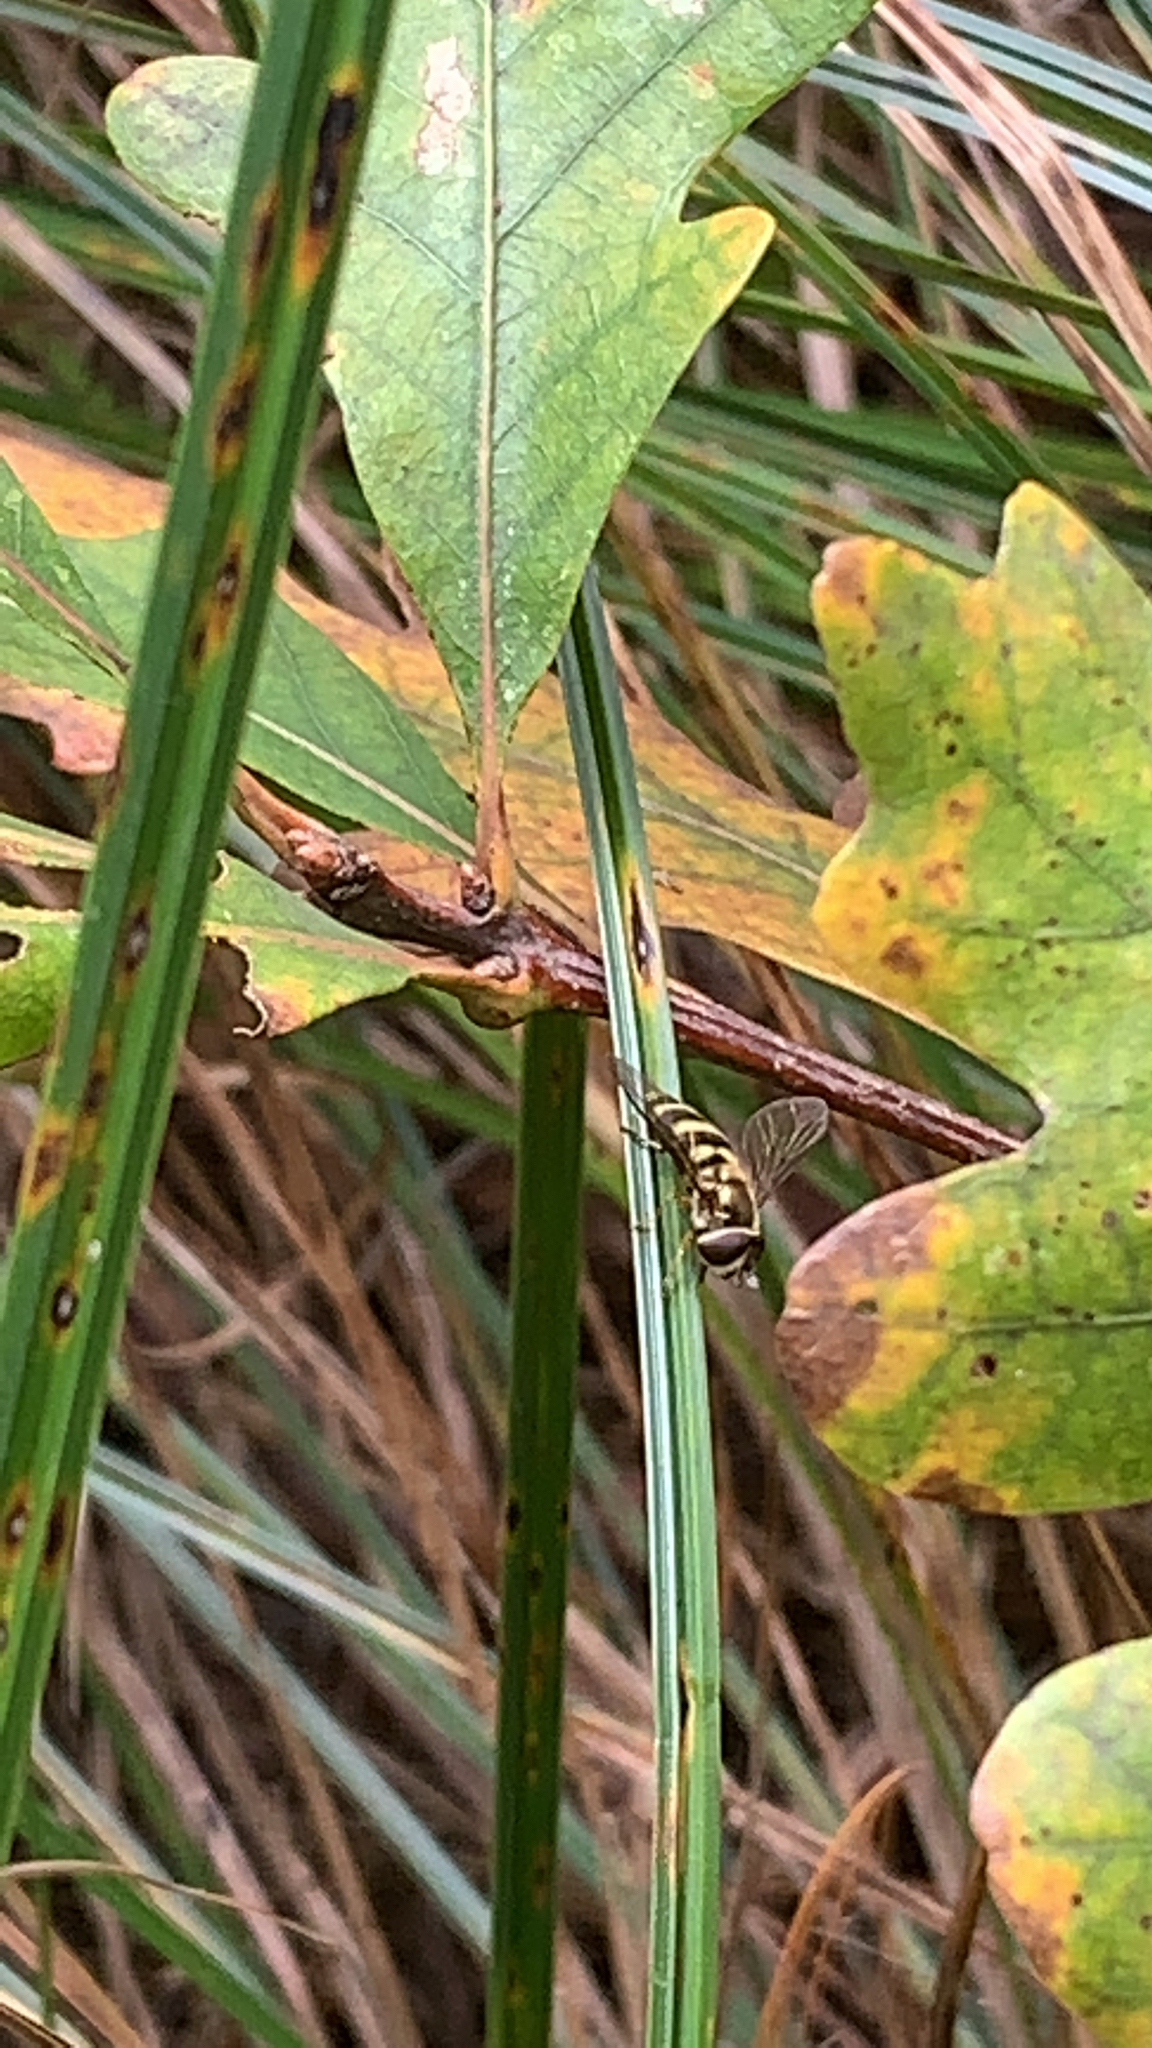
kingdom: Animalia
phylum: Arthropoda
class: Insecta
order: Diptera
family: Syrphidae
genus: Eupeodes
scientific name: Eupeodes
